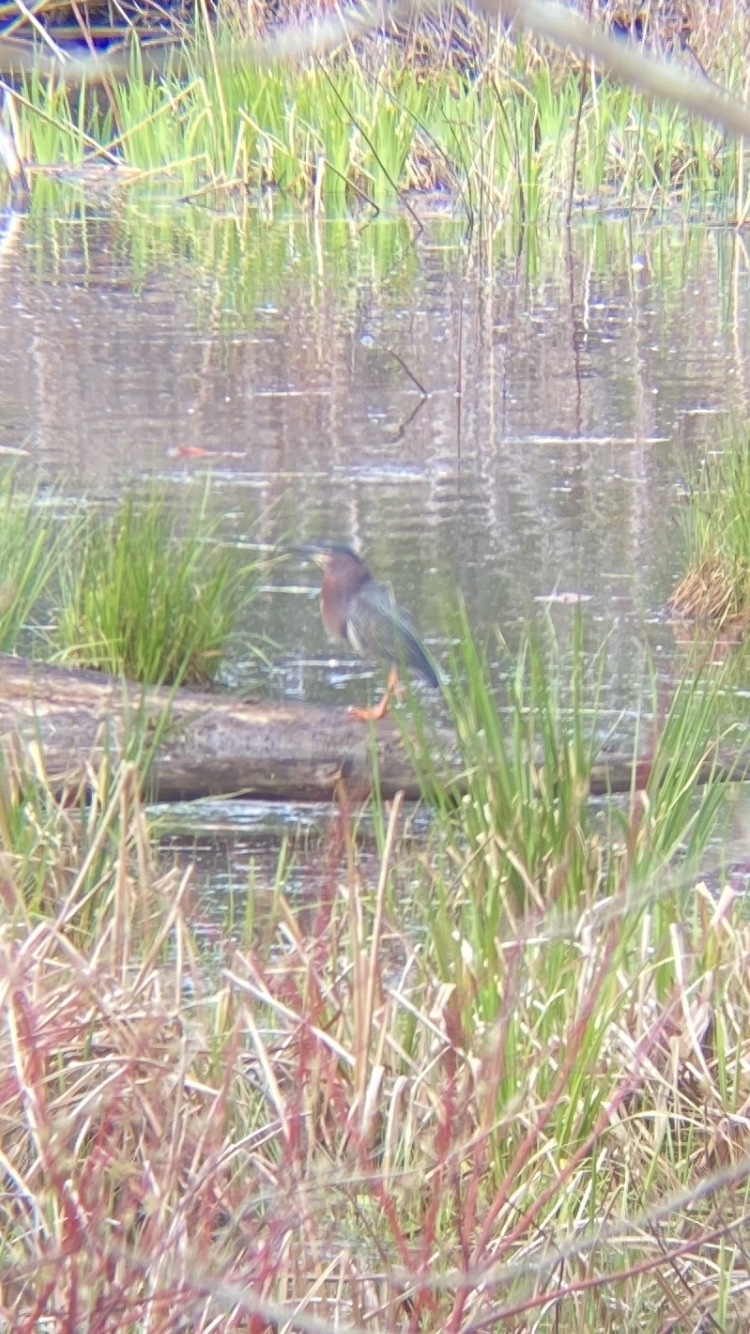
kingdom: Animalia
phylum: Chordata
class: Aves
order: Pelecaniformes
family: Ardeidae
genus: Butorides
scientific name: Butorides virescens
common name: Green heron
